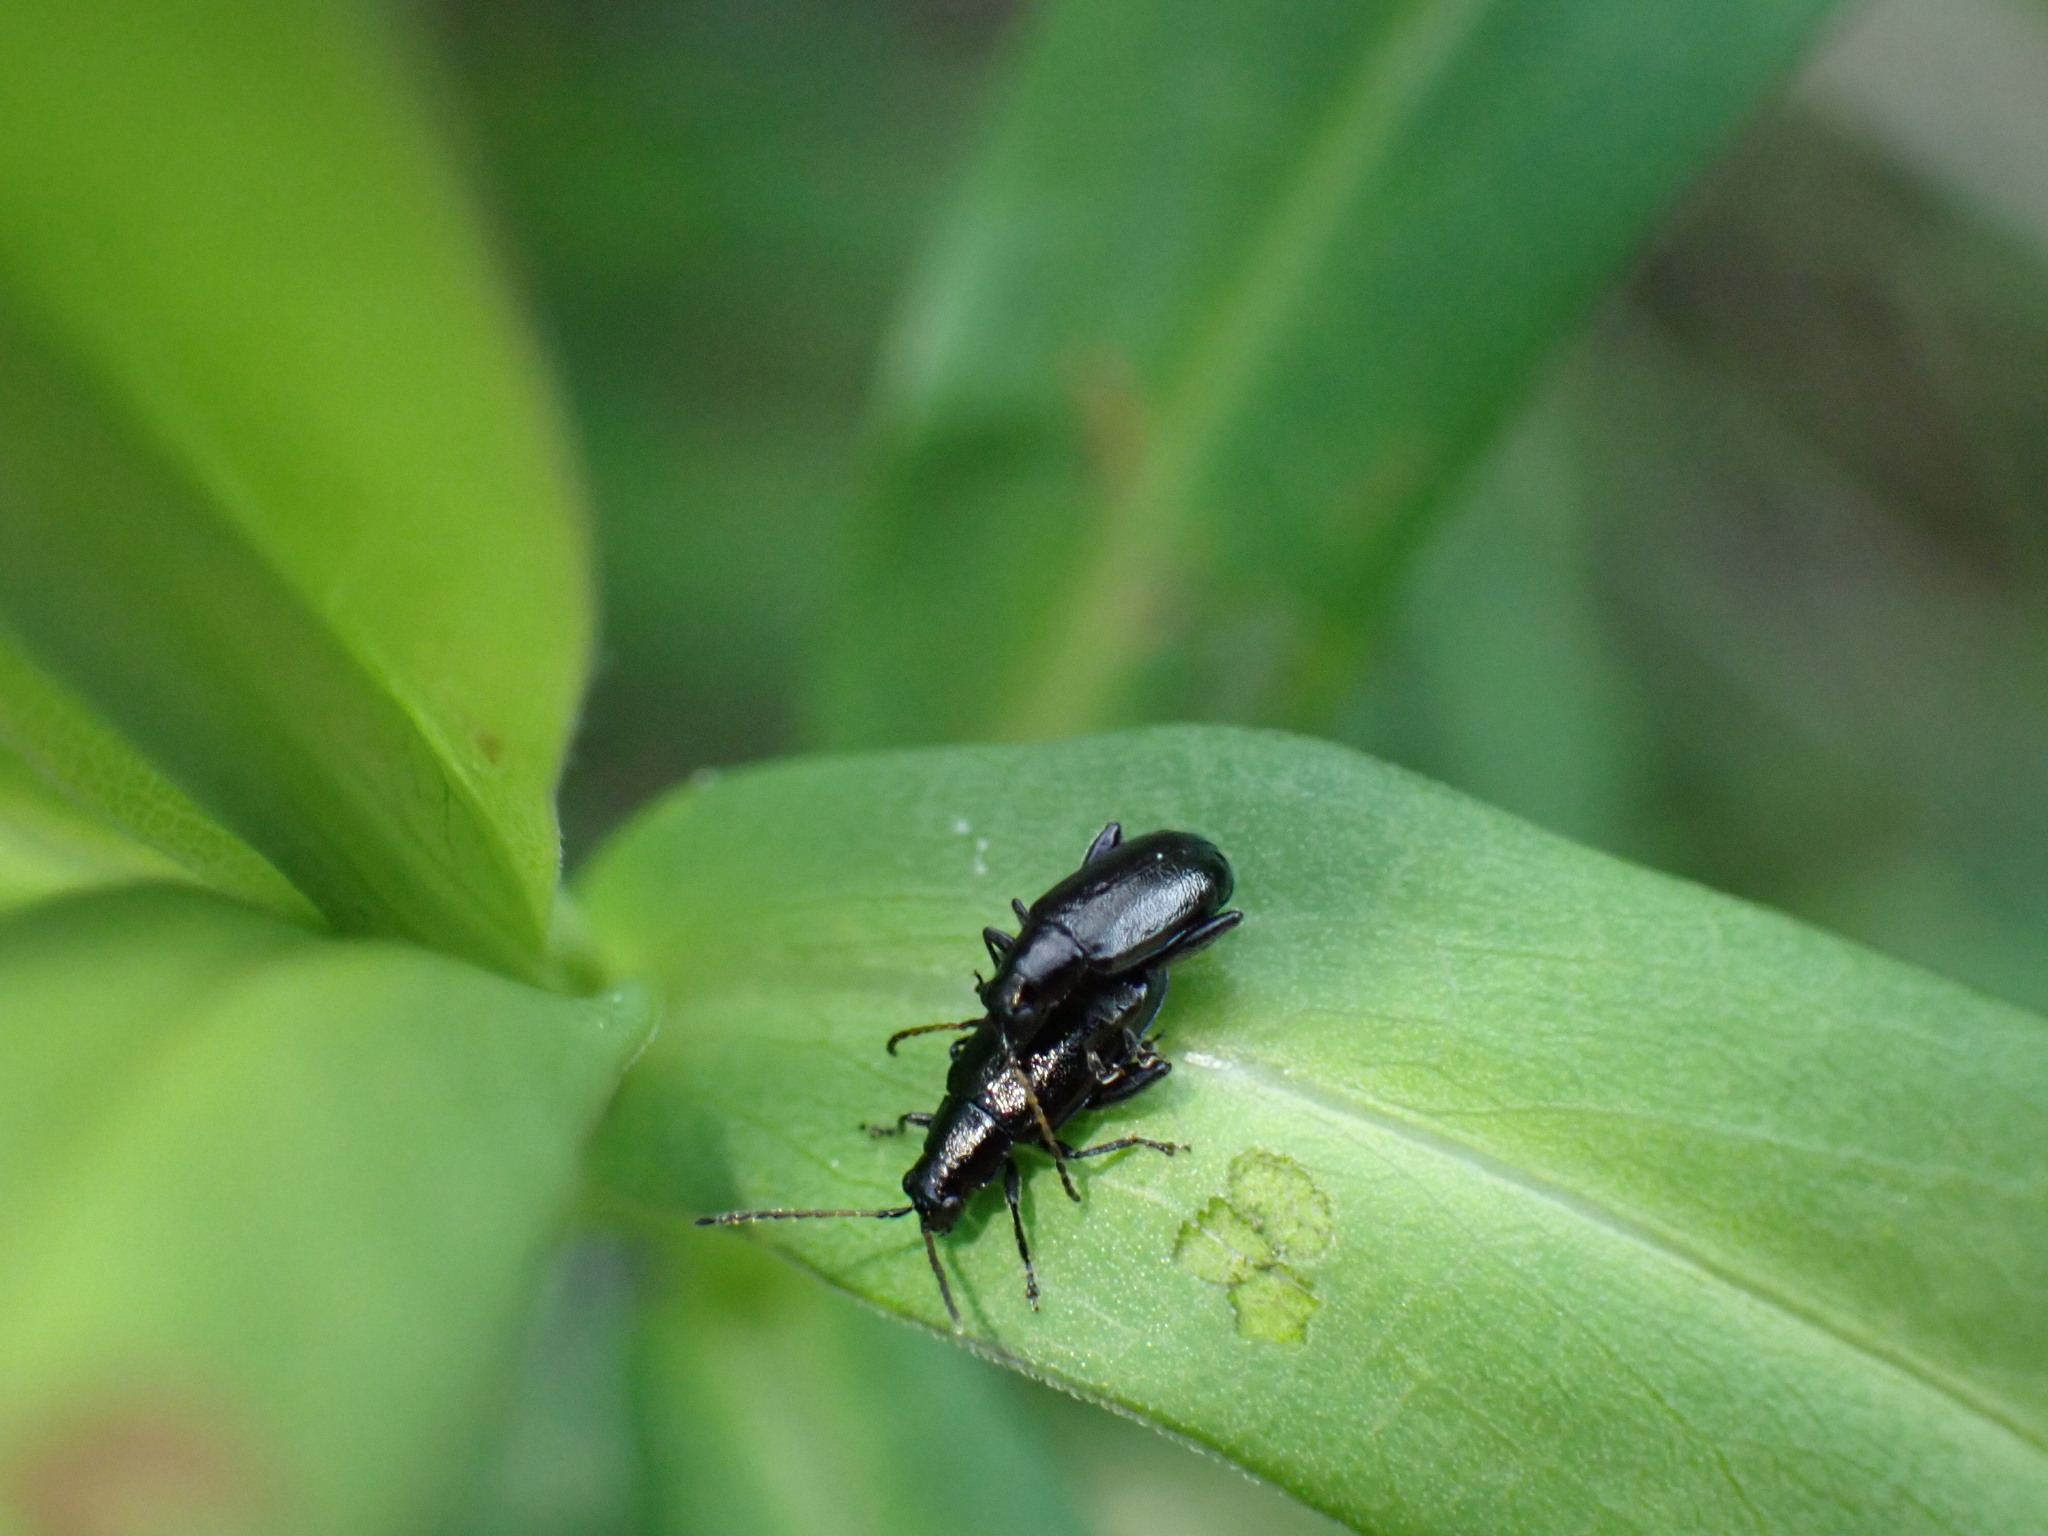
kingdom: Animalia
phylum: Arthropoda
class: Insecta
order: Coleoptera
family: Chrysomelidae
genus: Systena
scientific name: Systena hudsonias
